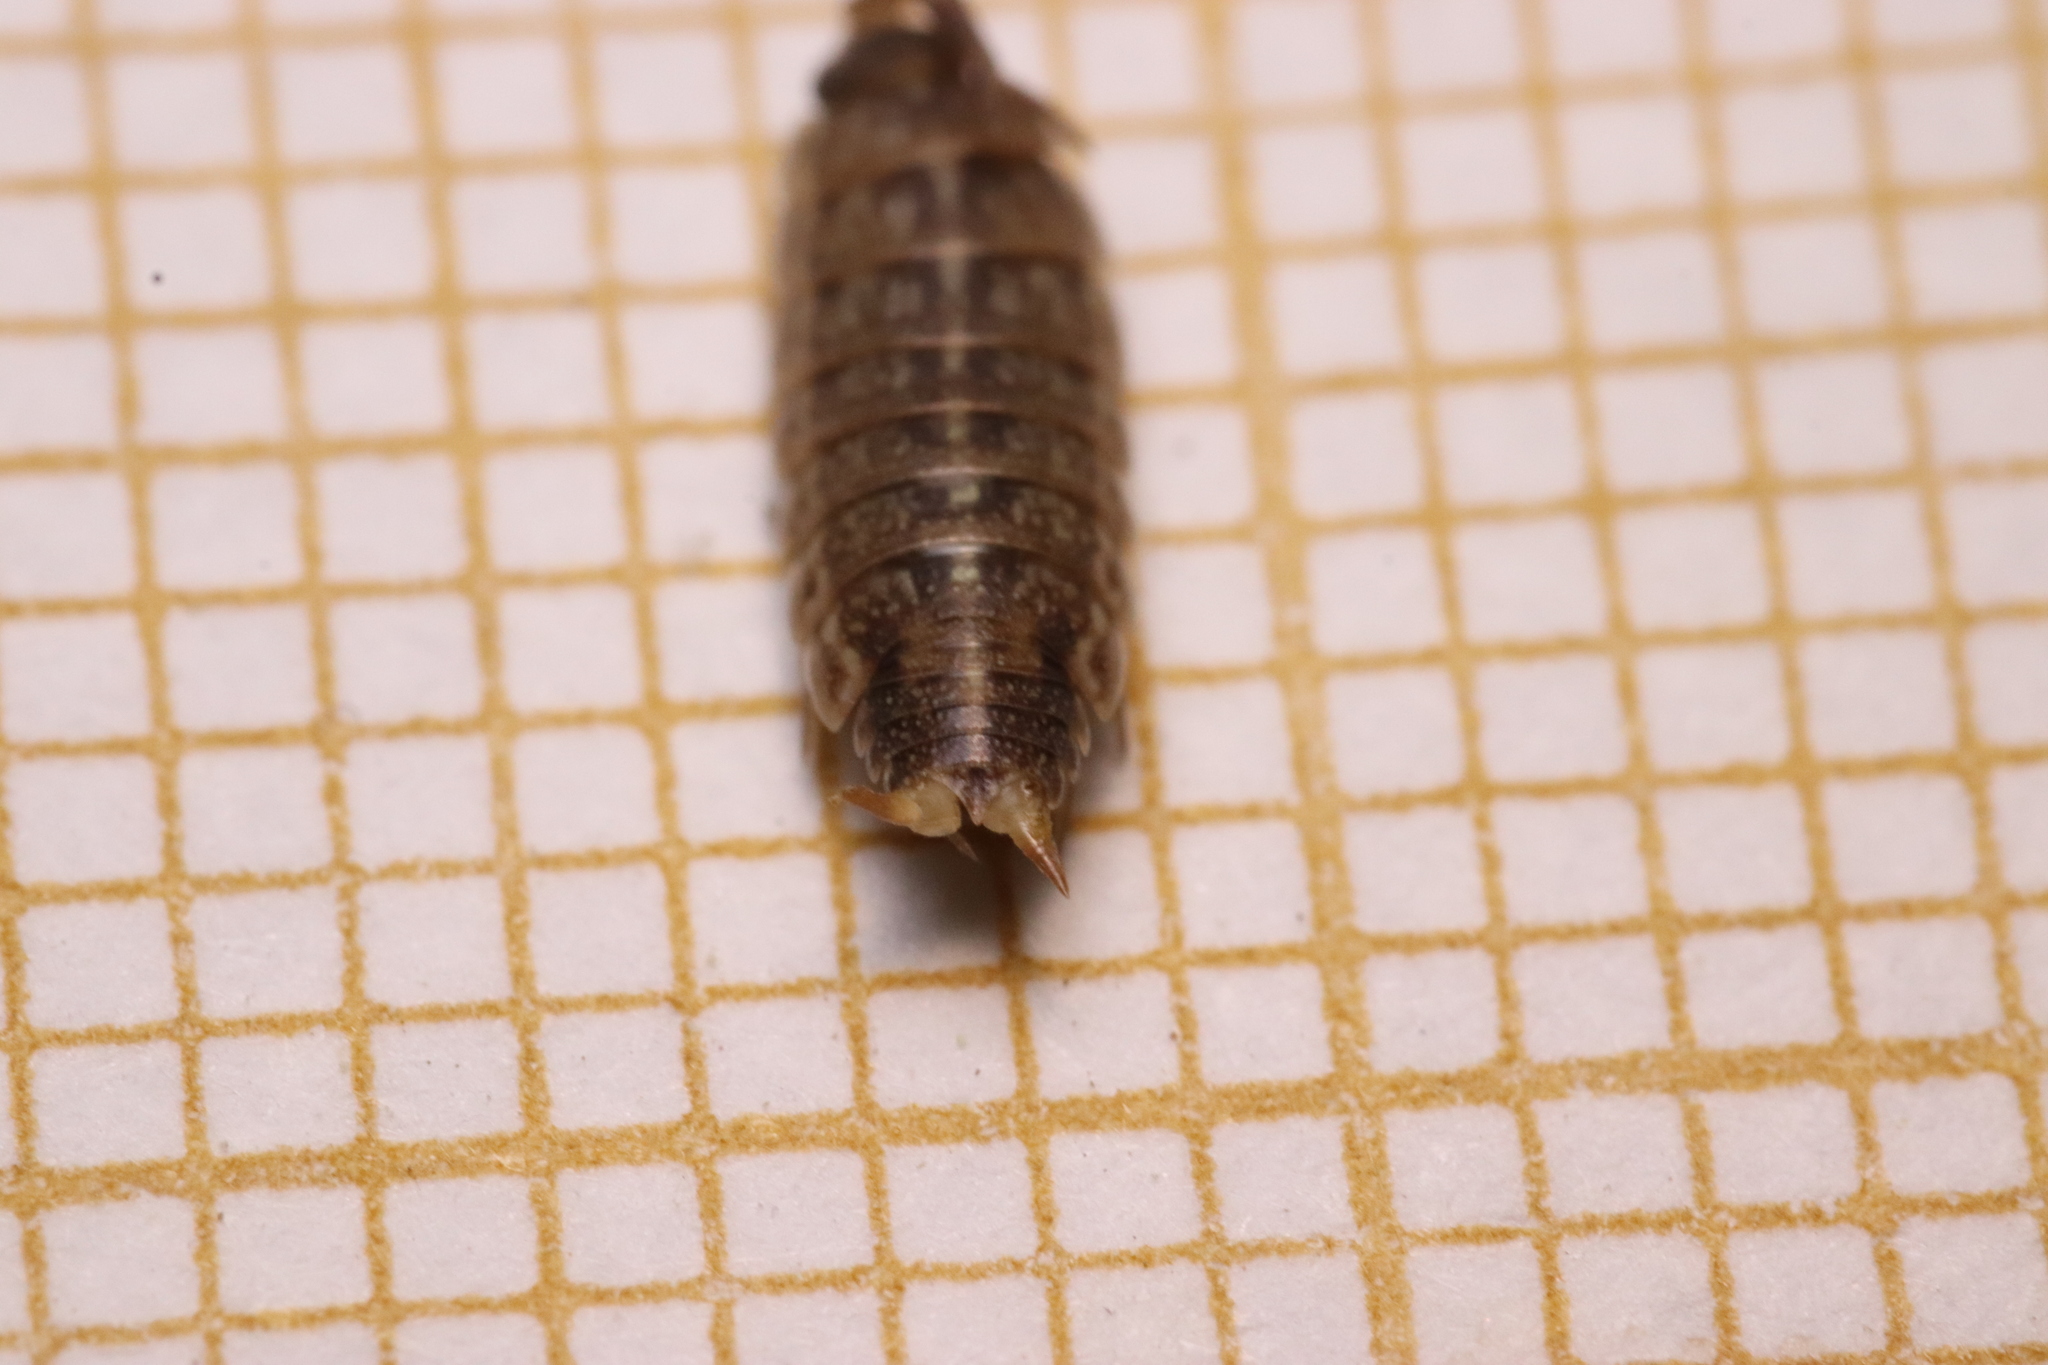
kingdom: Animalia
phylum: Arthropoda
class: Malacostraca
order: Isopoda
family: Porcellionidae
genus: Acaeroplastes
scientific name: Acaeroplastes melanurus
